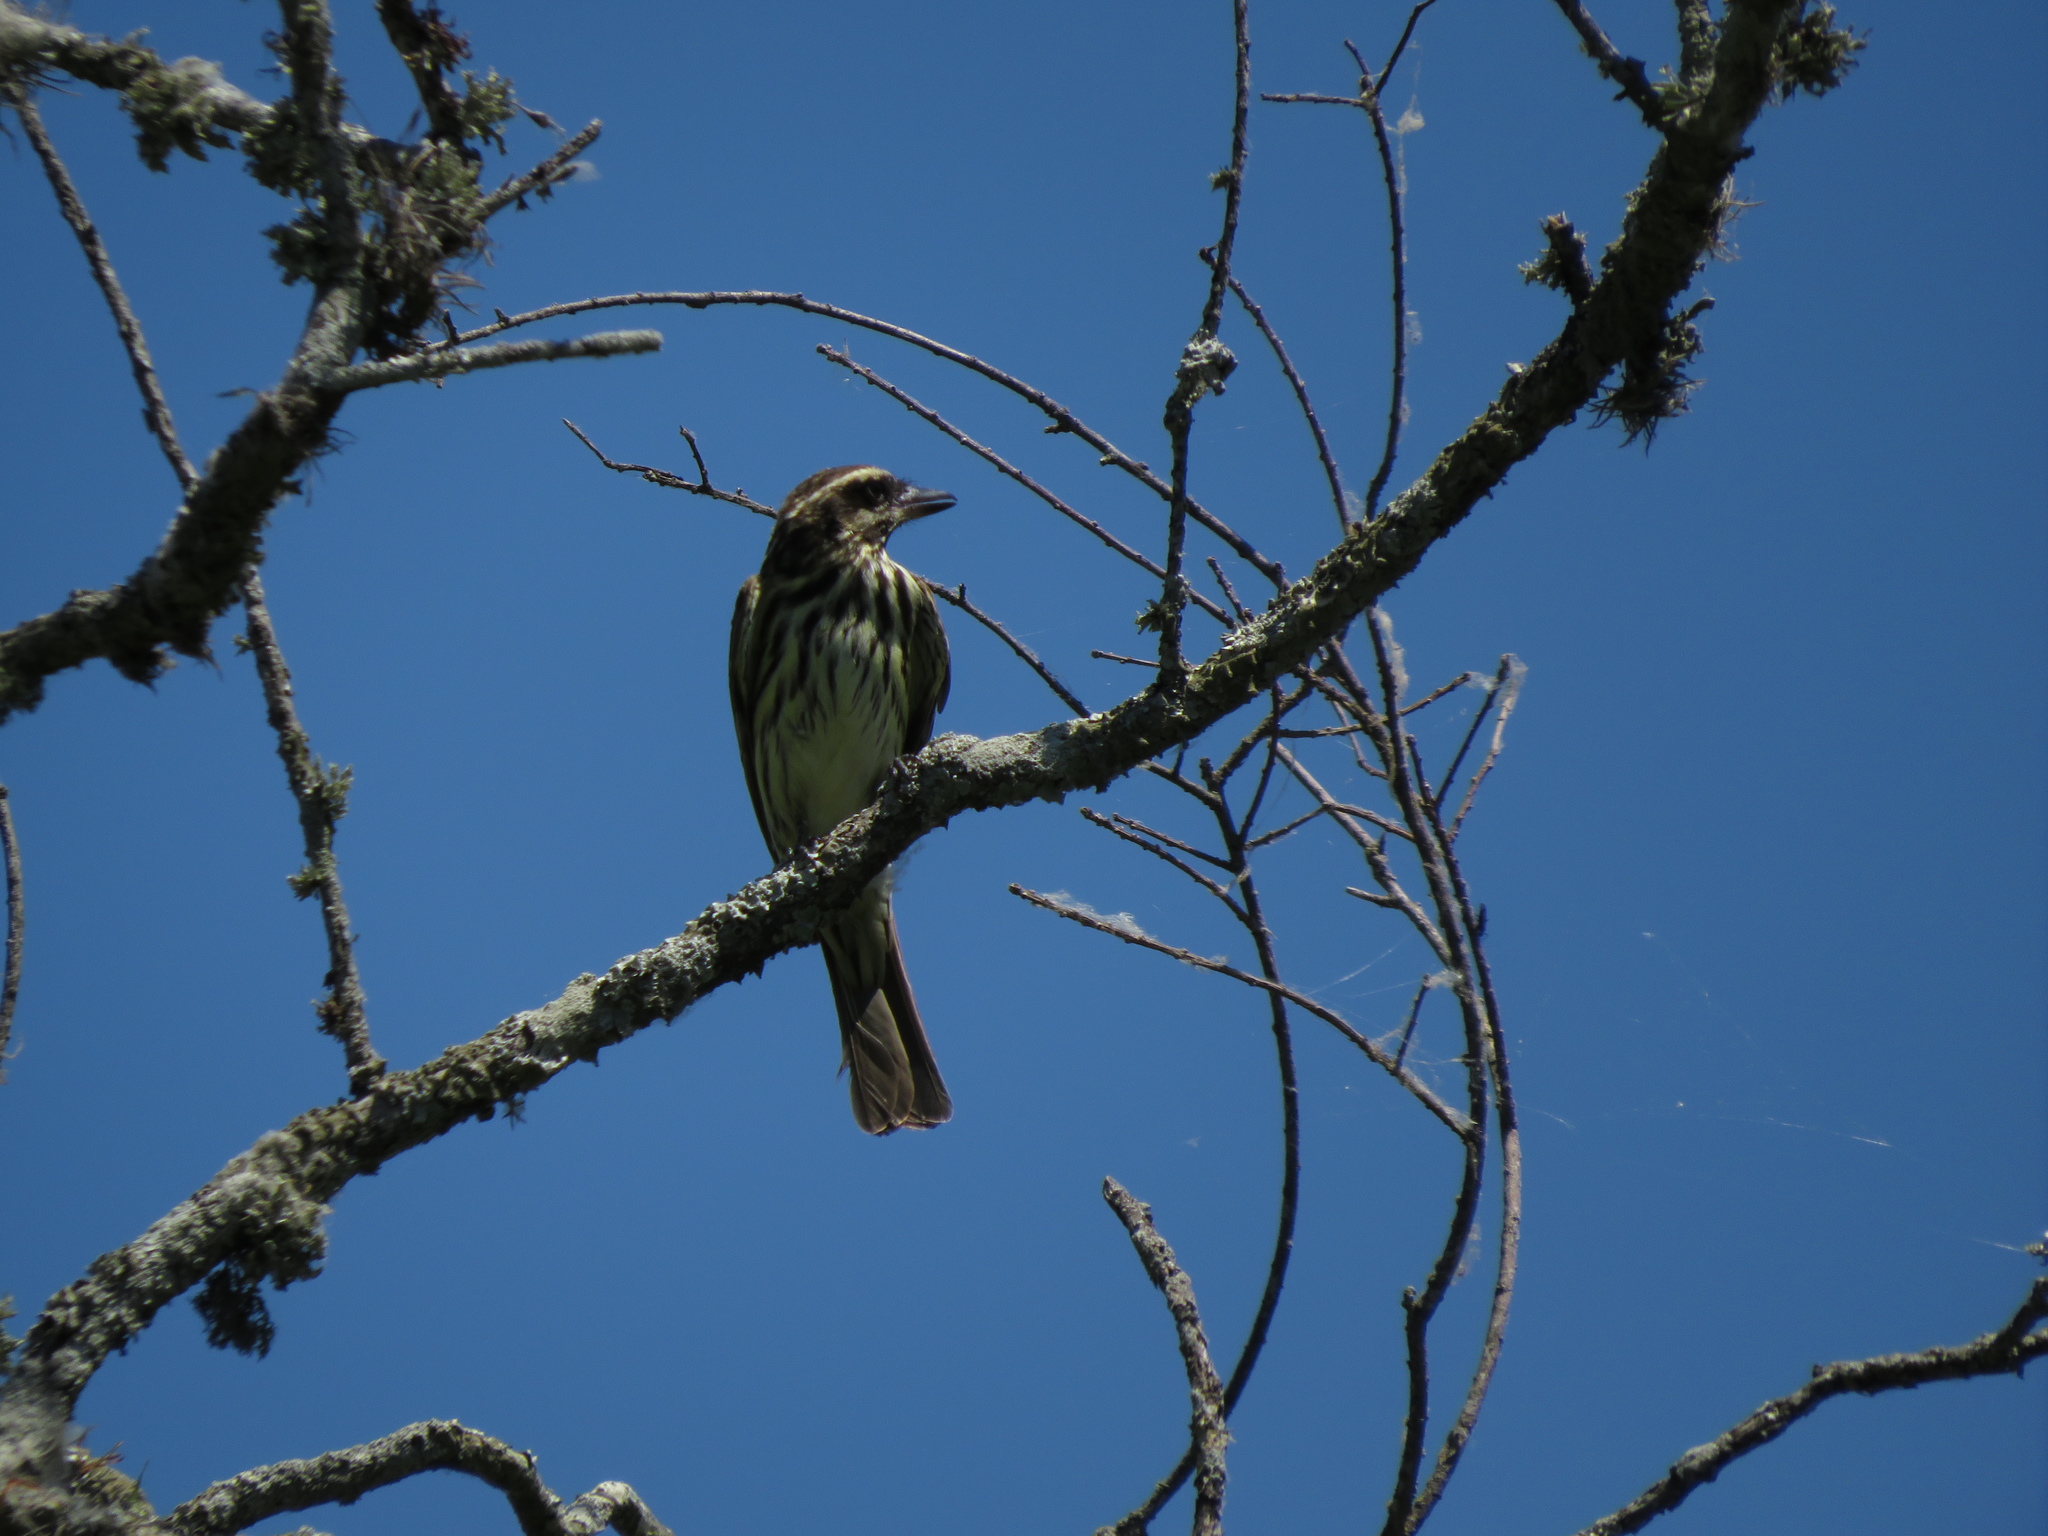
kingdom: Animalia
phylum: Chordata
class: Aves
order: Passeriformes
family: Tyrannidae
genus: Myiodynastes
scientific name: Myiodynastes maculatus
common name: Streaked flycatcher
